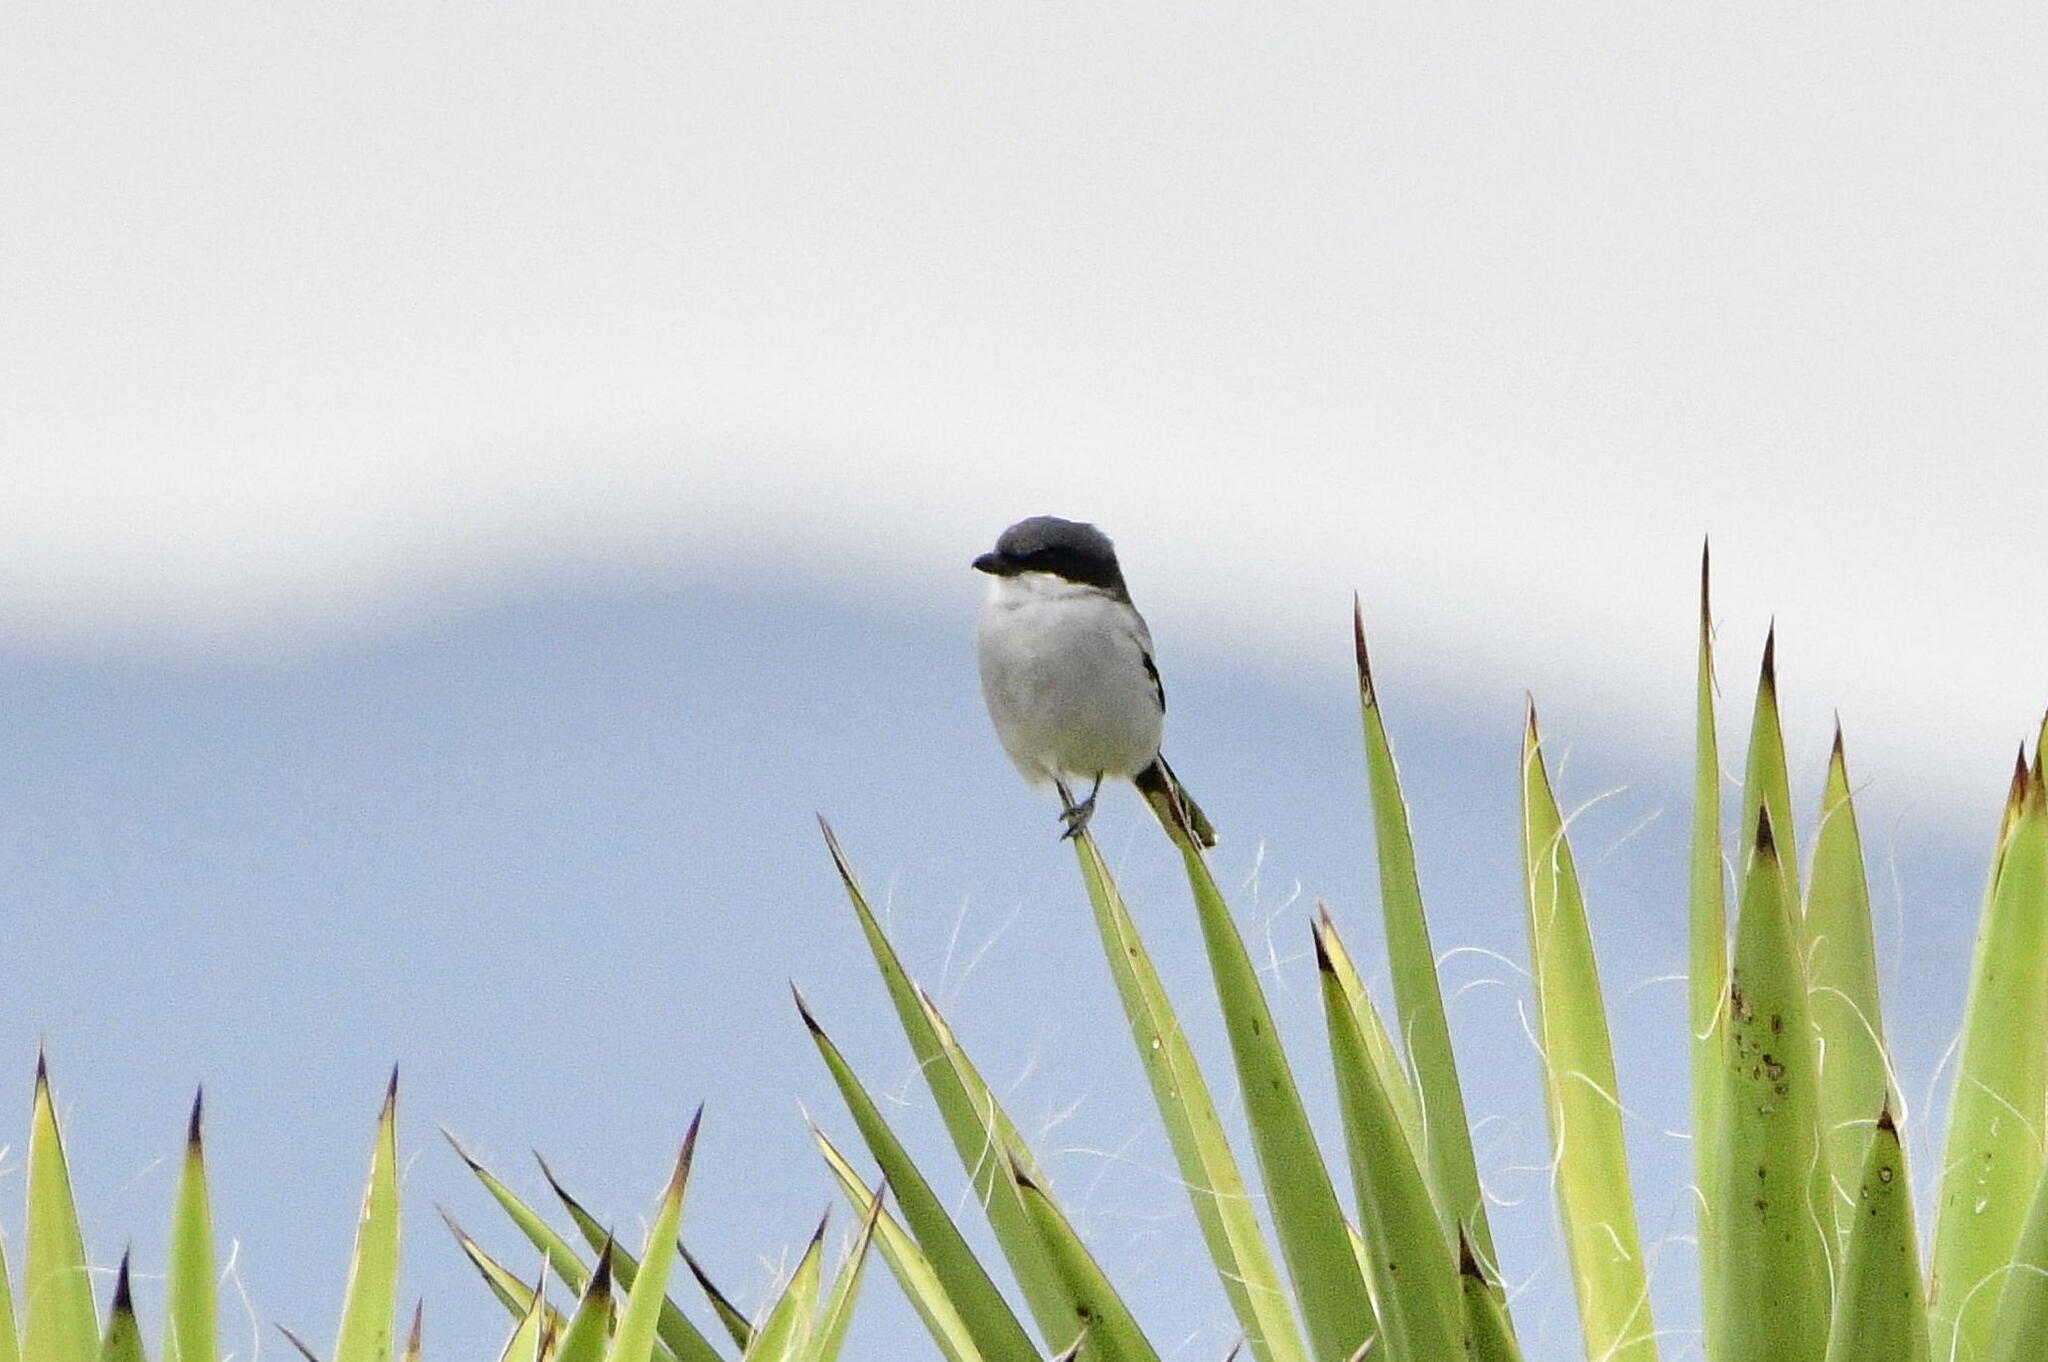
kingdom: Animalia
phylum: Chordata
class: Aves
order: Passeriformes
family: Laniidae
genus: Lanius
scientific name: Lanius ludovicianus
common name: Loggerhead shrike
